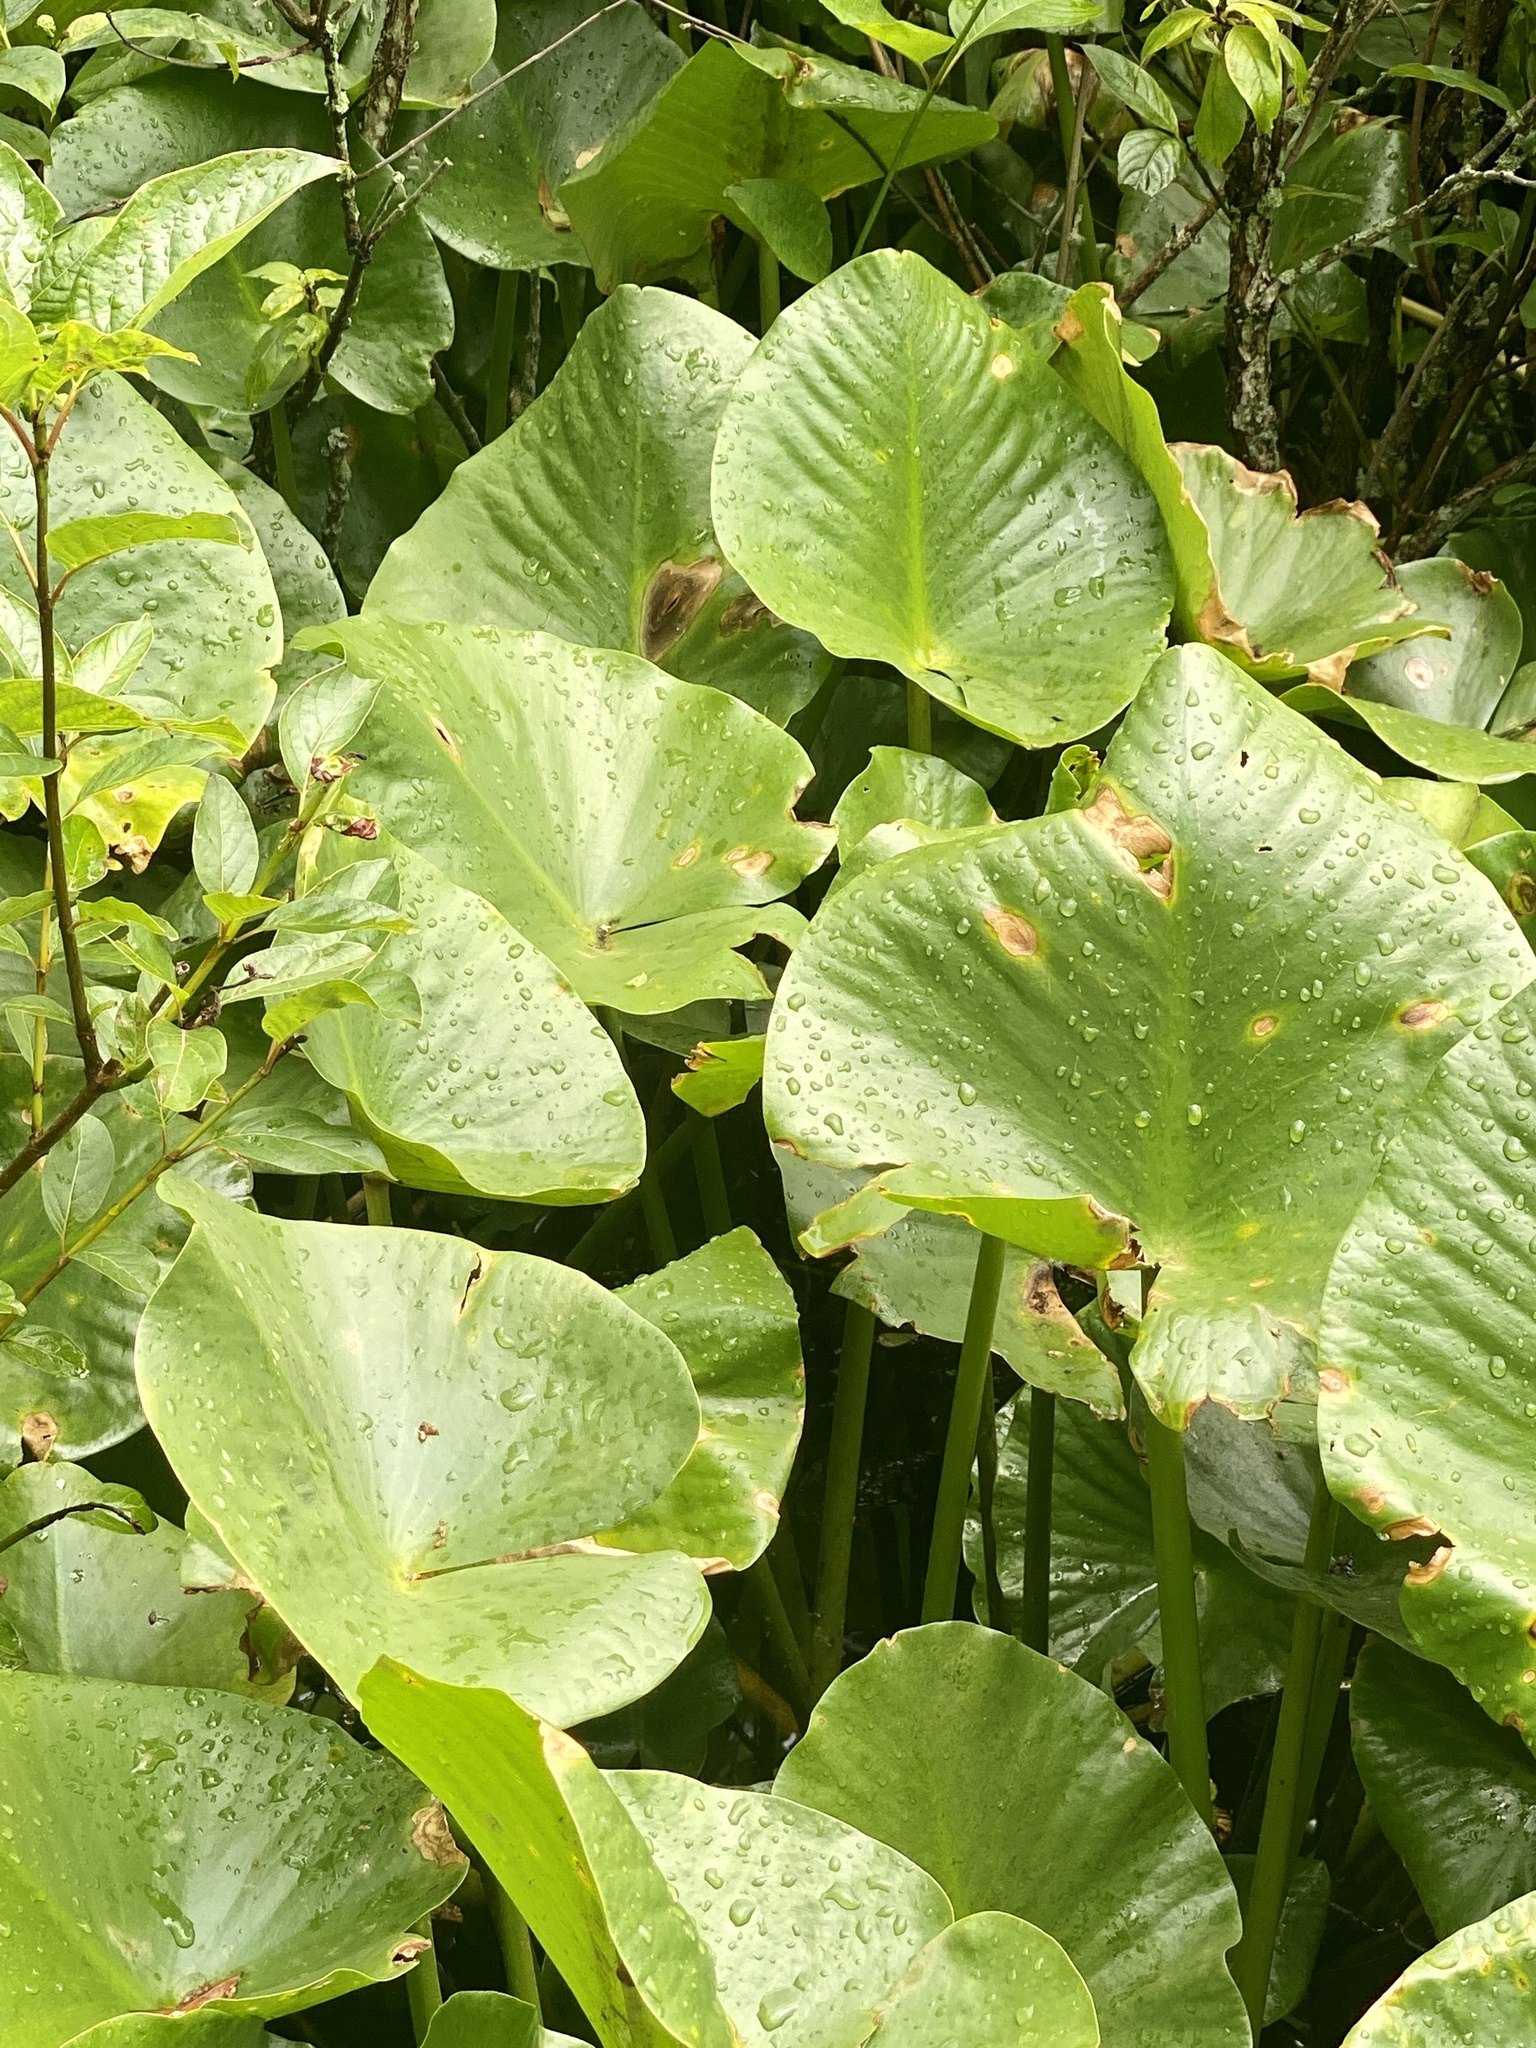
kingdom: Plantae
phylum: Tracheophyta
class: Magnoliopsida
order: Nymphaeales
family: Nymphaeaceae
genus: Nuphar
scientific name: Nuphar advena
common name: Spatter-dock
